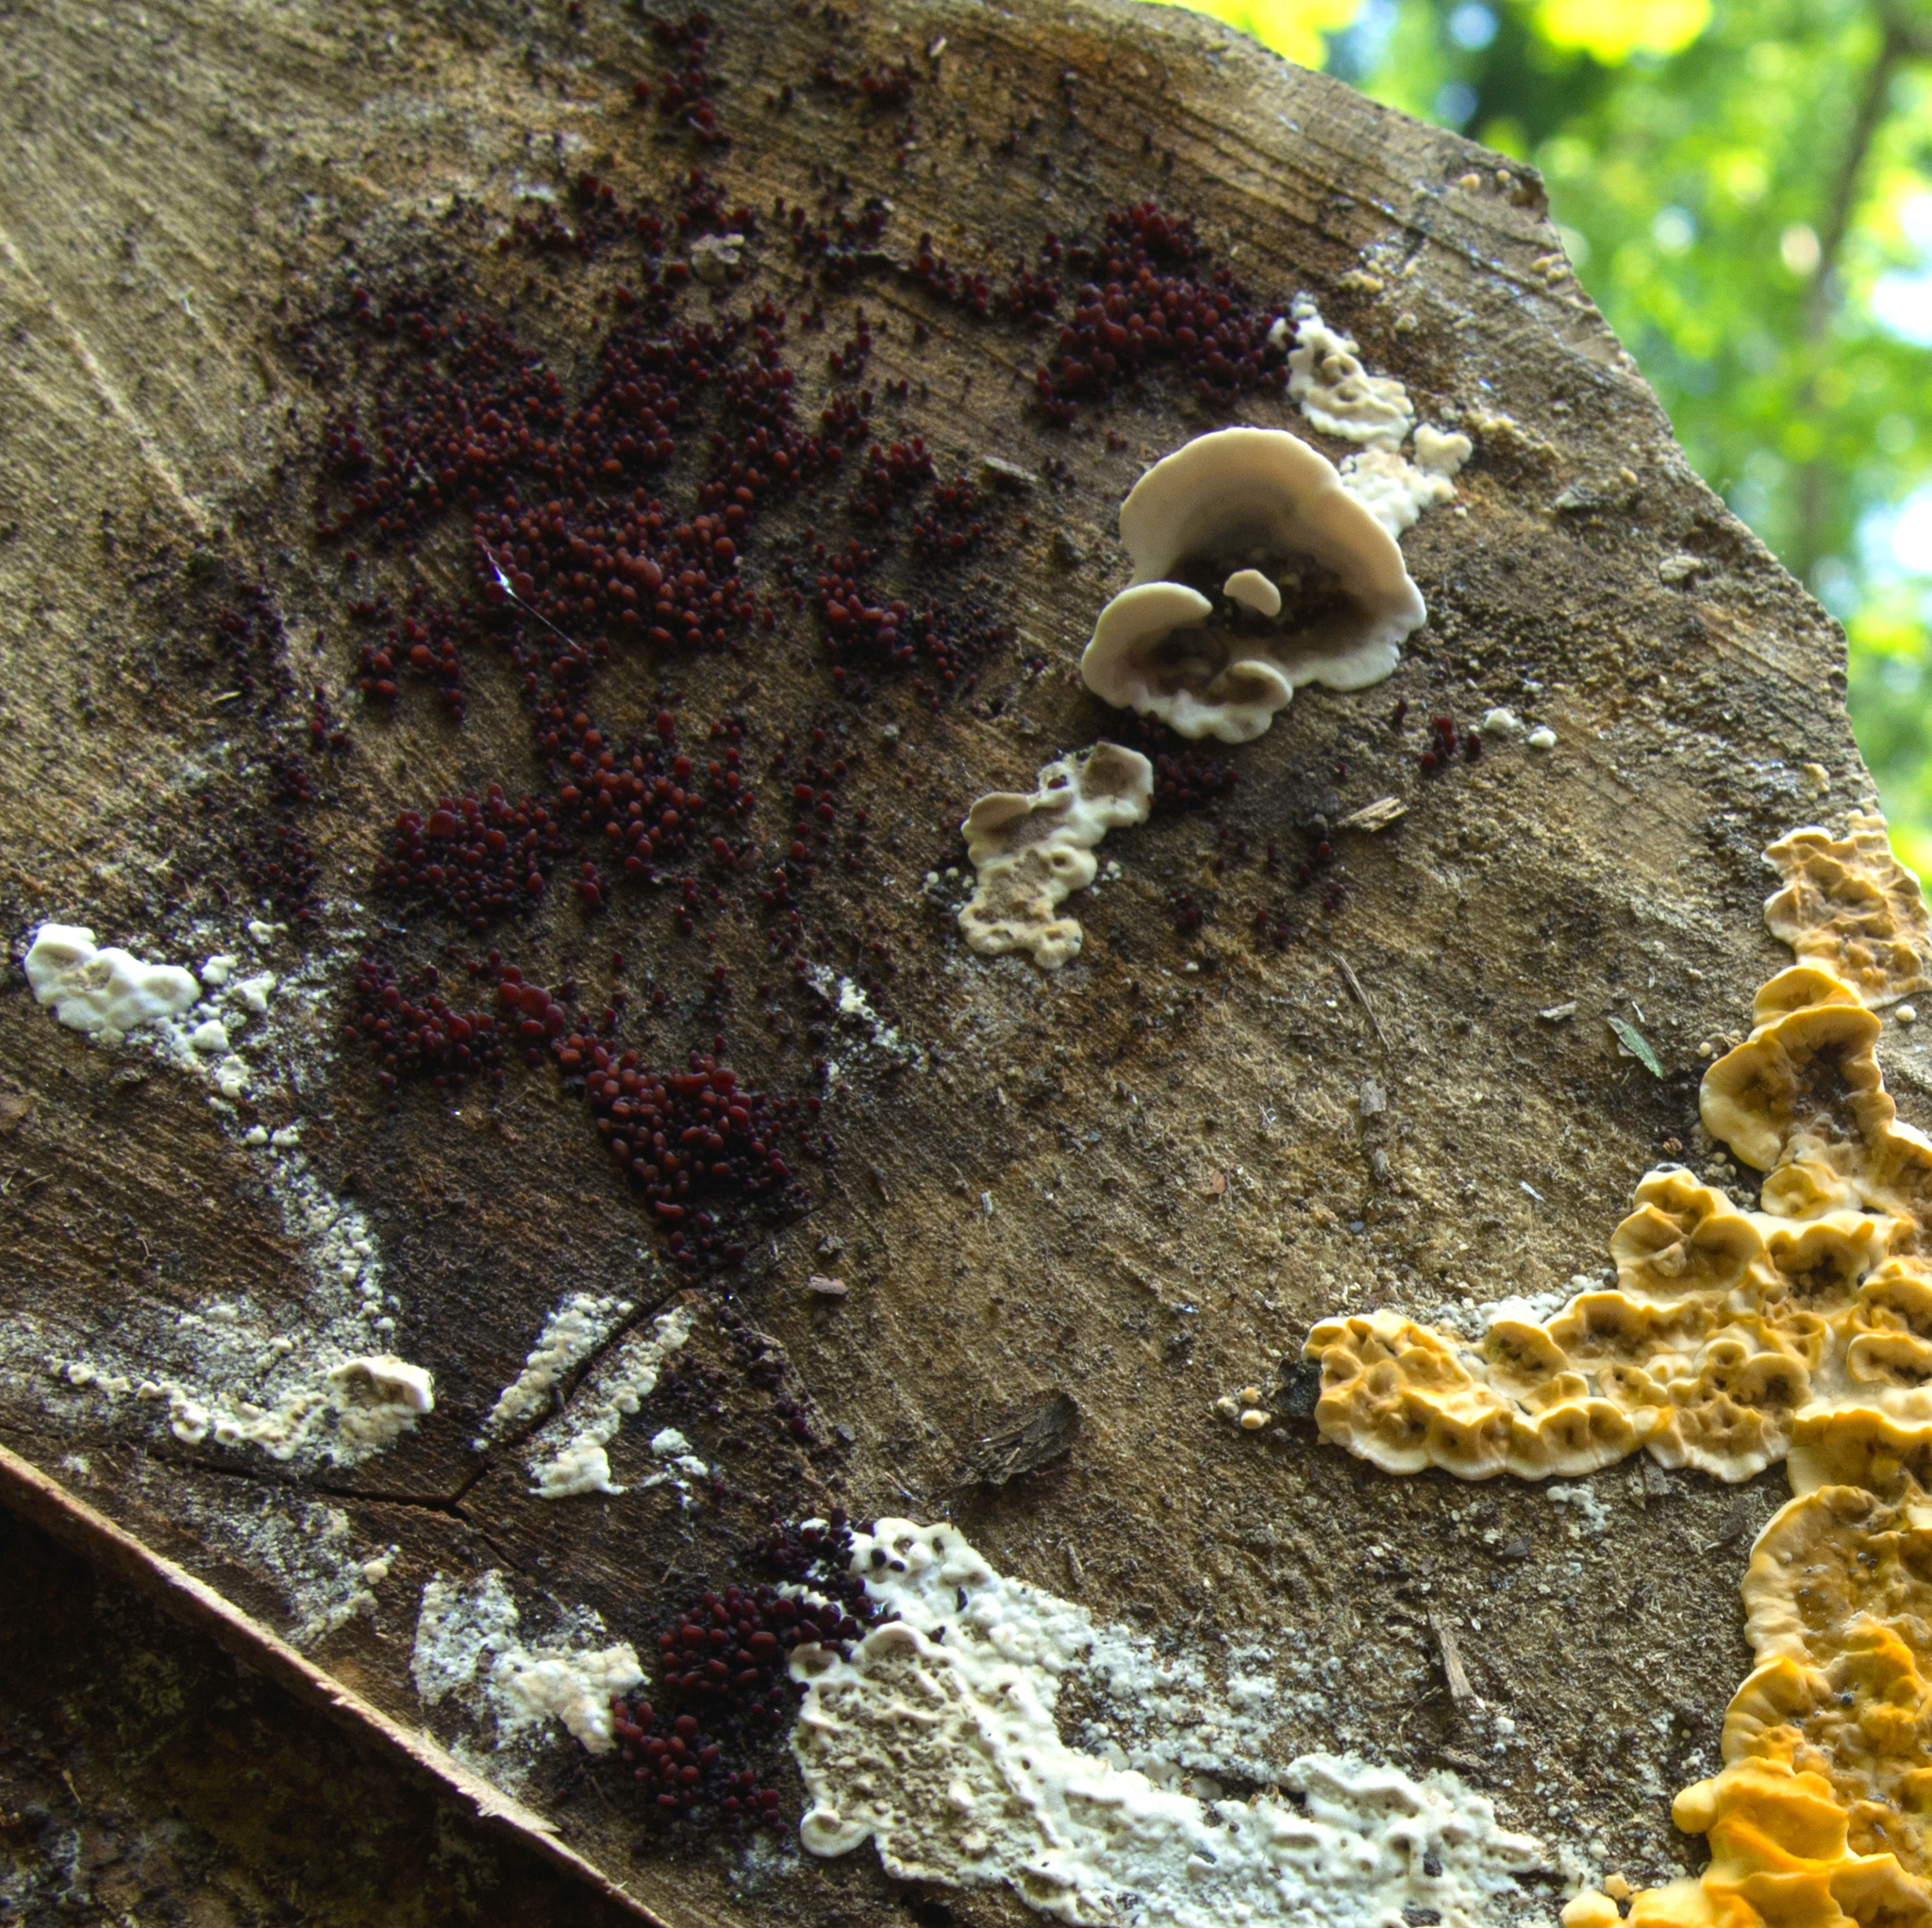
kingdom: Fungi
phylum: Ascomycota
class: Leotiomycetes
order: Helotiales
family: Gelatinodiscaceae
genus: Ascocoryne
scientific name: Ascocoryne cylichnium
